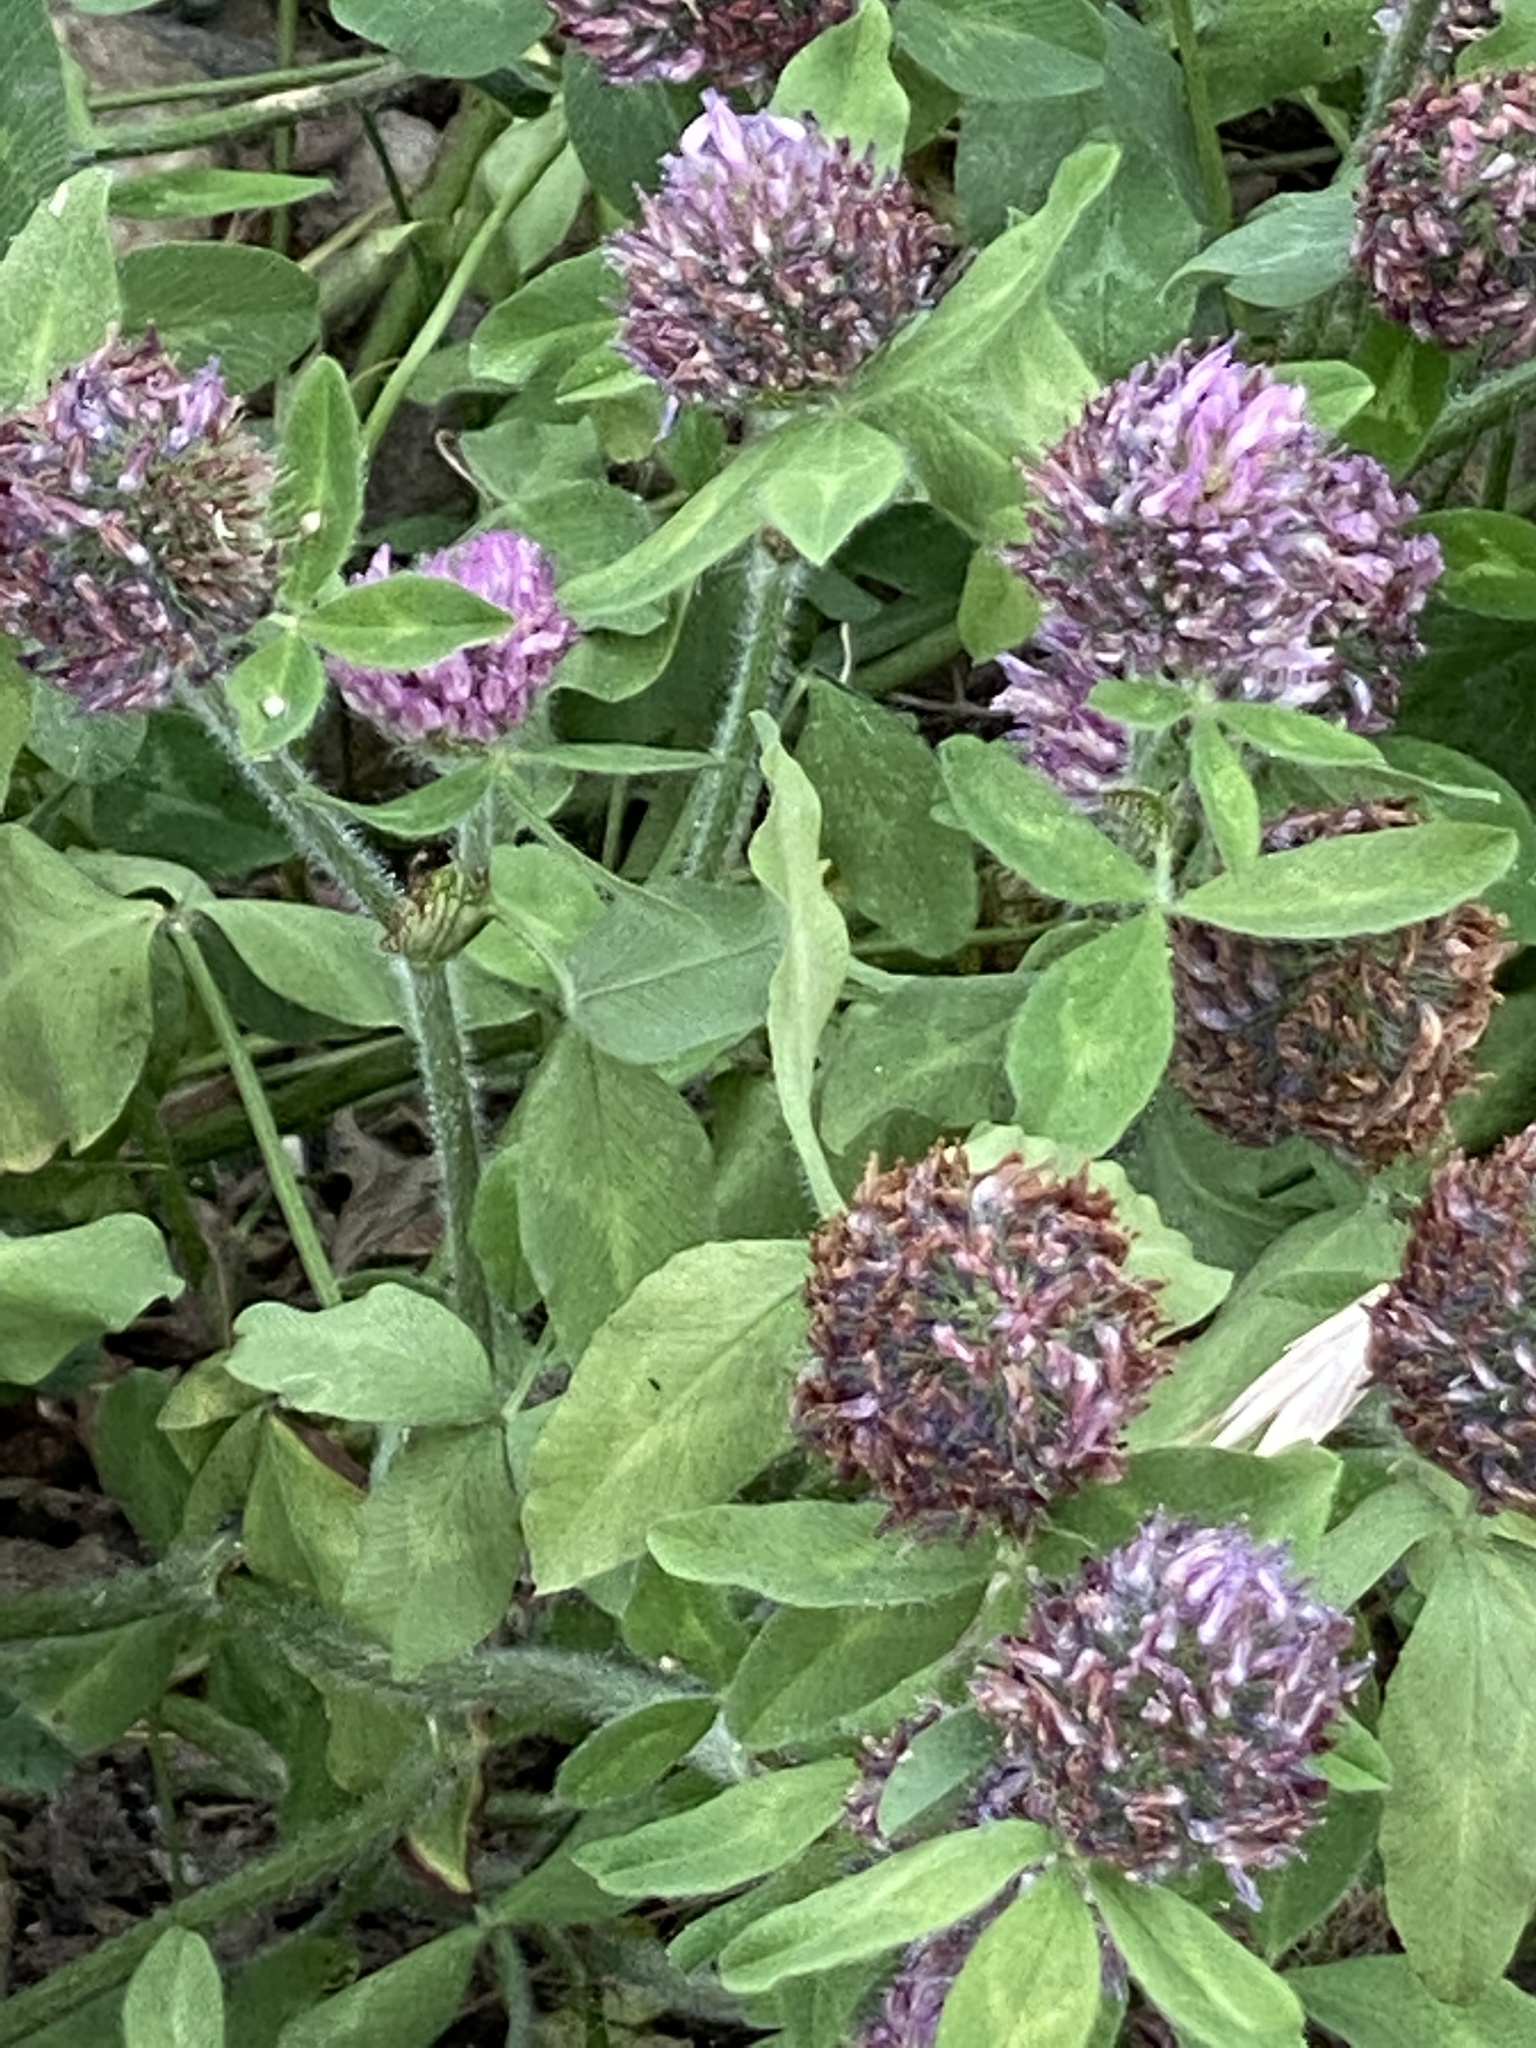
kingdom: Plantae
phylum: Tracheophyta
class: Magnoliopsida
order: Fabales
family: Fabaceae
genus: Trifolium
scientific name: Trifolium pratense
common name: Red clover
